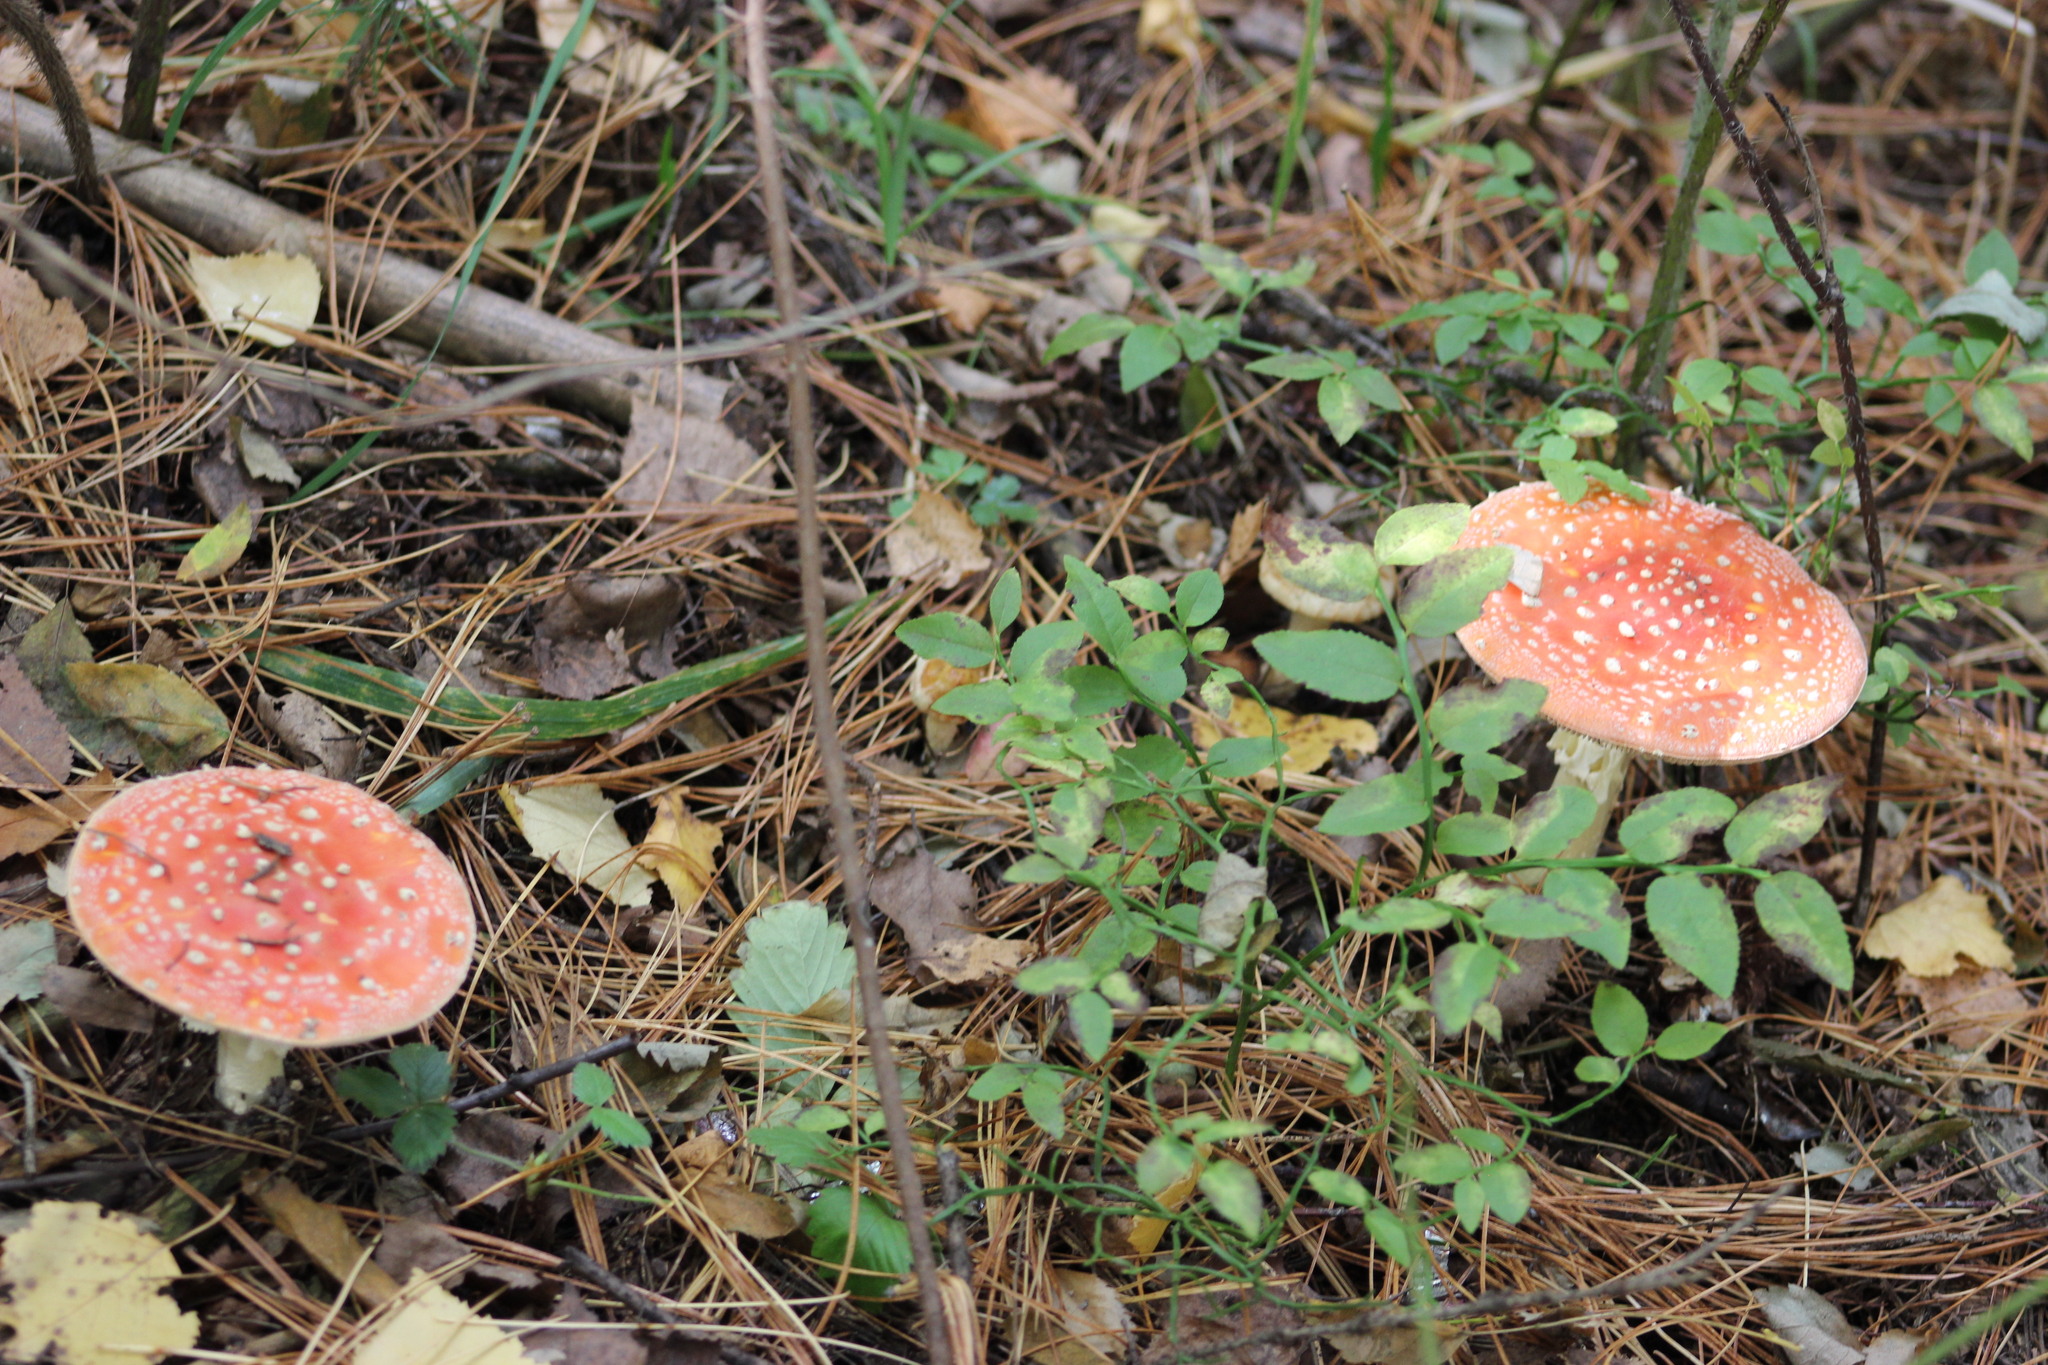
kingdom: Fungi
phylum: Basidiomycota
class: Agaricomycetes
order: Agaricales
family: Amanitaceae
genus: Amanita
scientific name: Amanita muscaria
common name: Fly agaric
